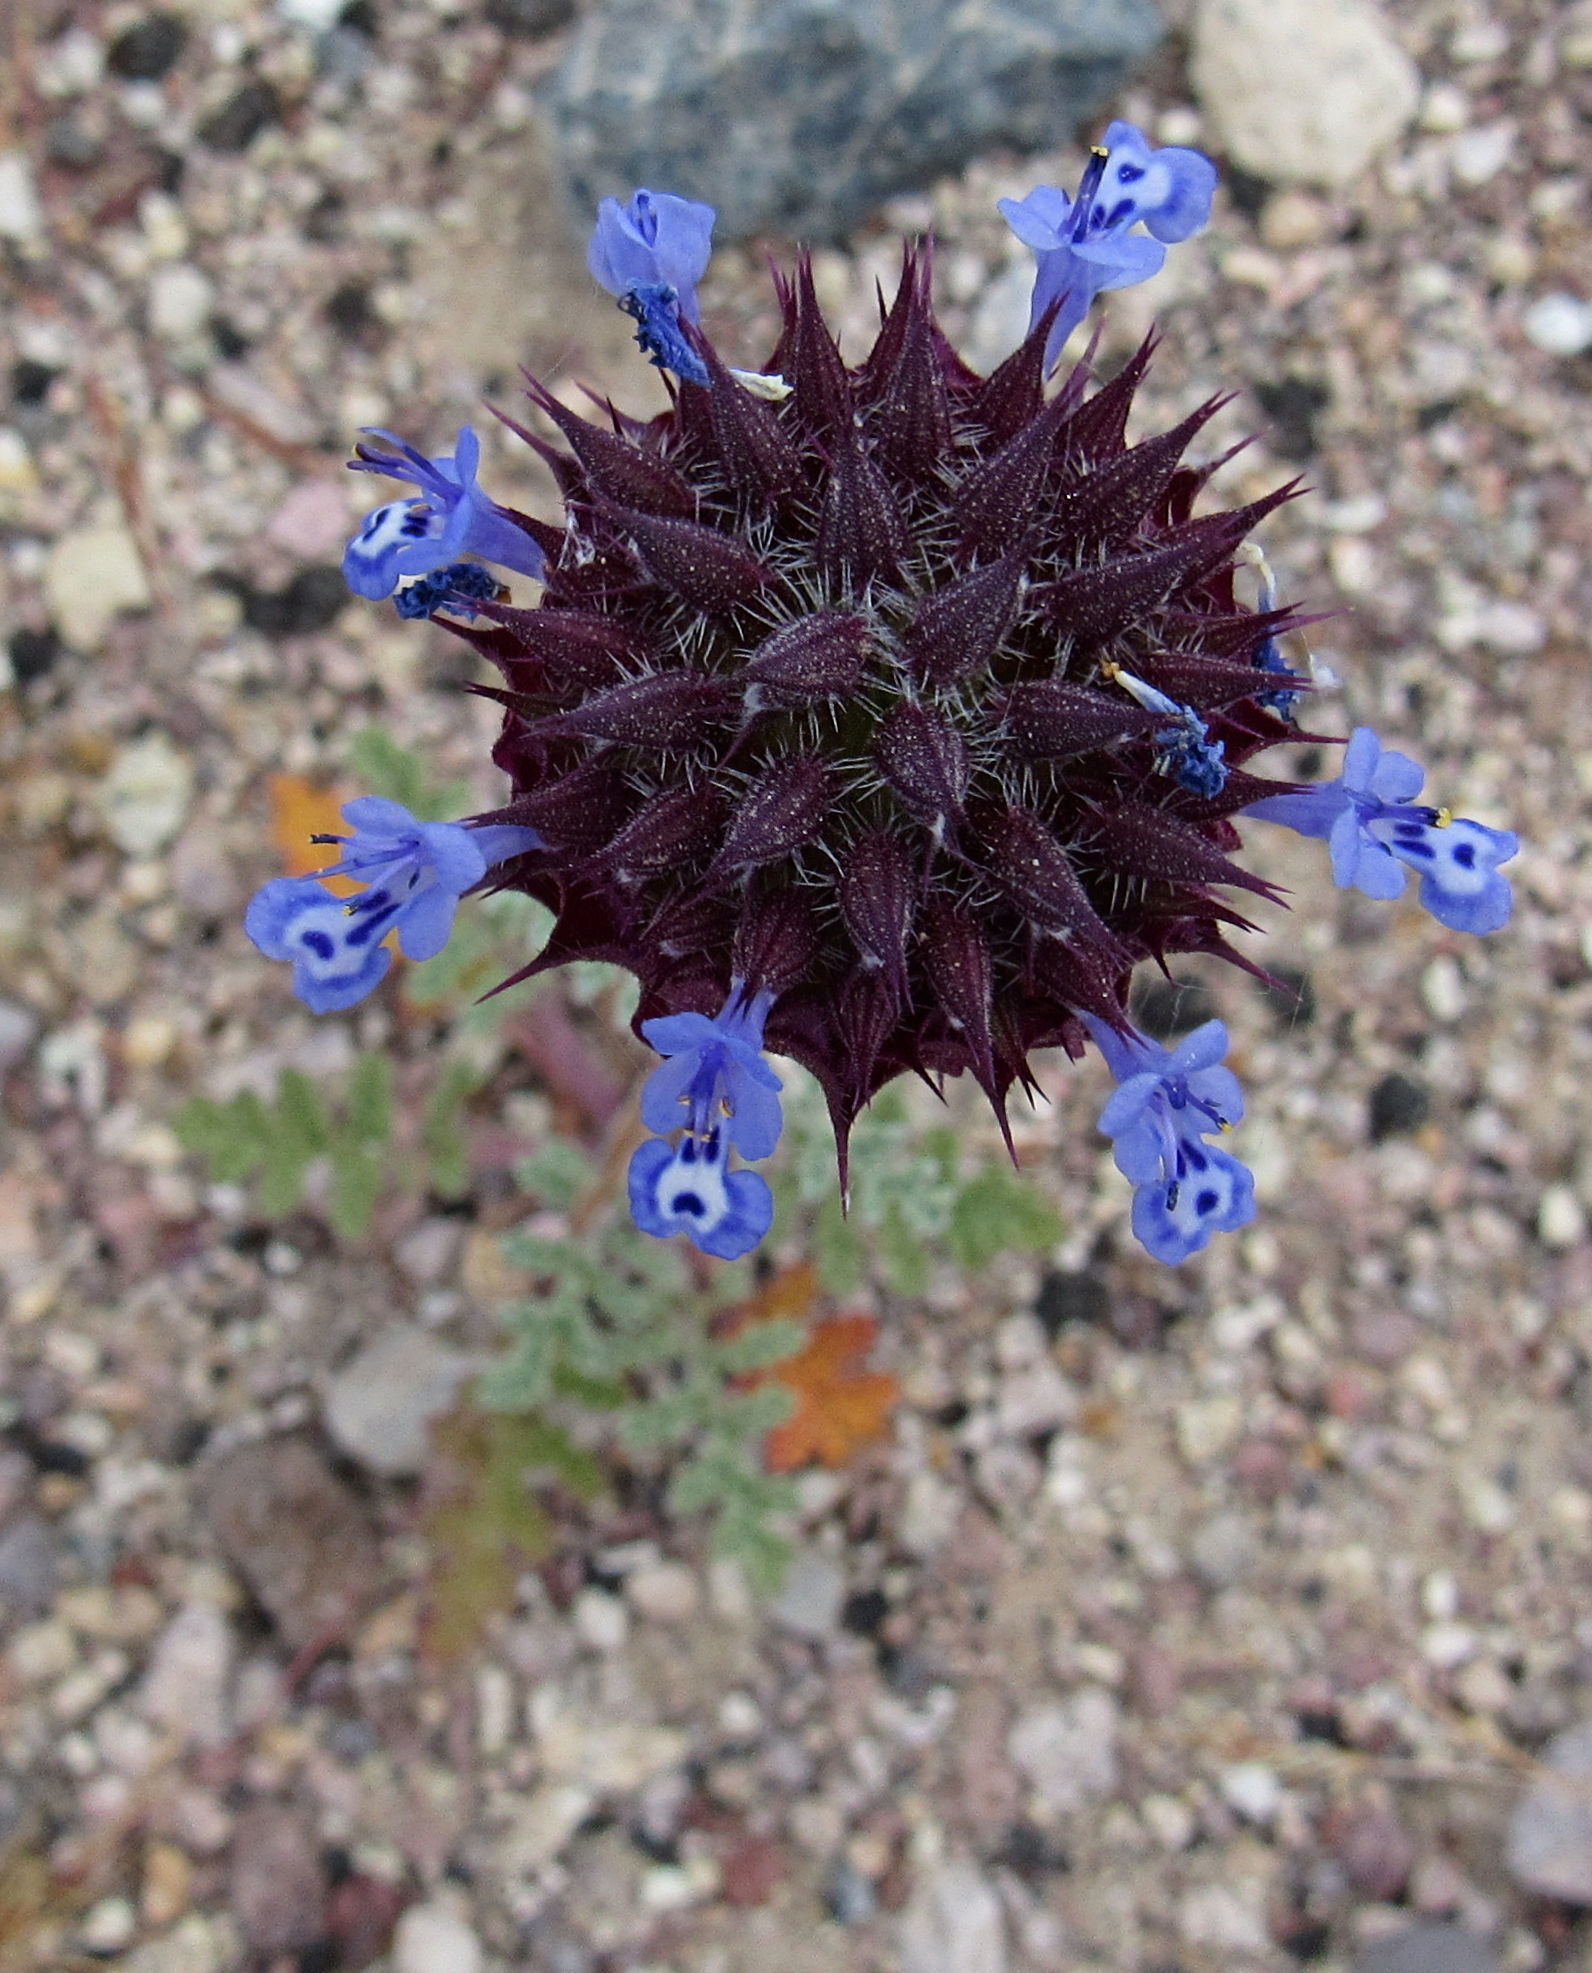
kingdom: Plantae
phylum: Tracheophyta
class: Magnoliopsida
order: Lamiales
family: Lamiaceae
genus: Salvia
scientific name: Salvia columbariae
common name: Chia
